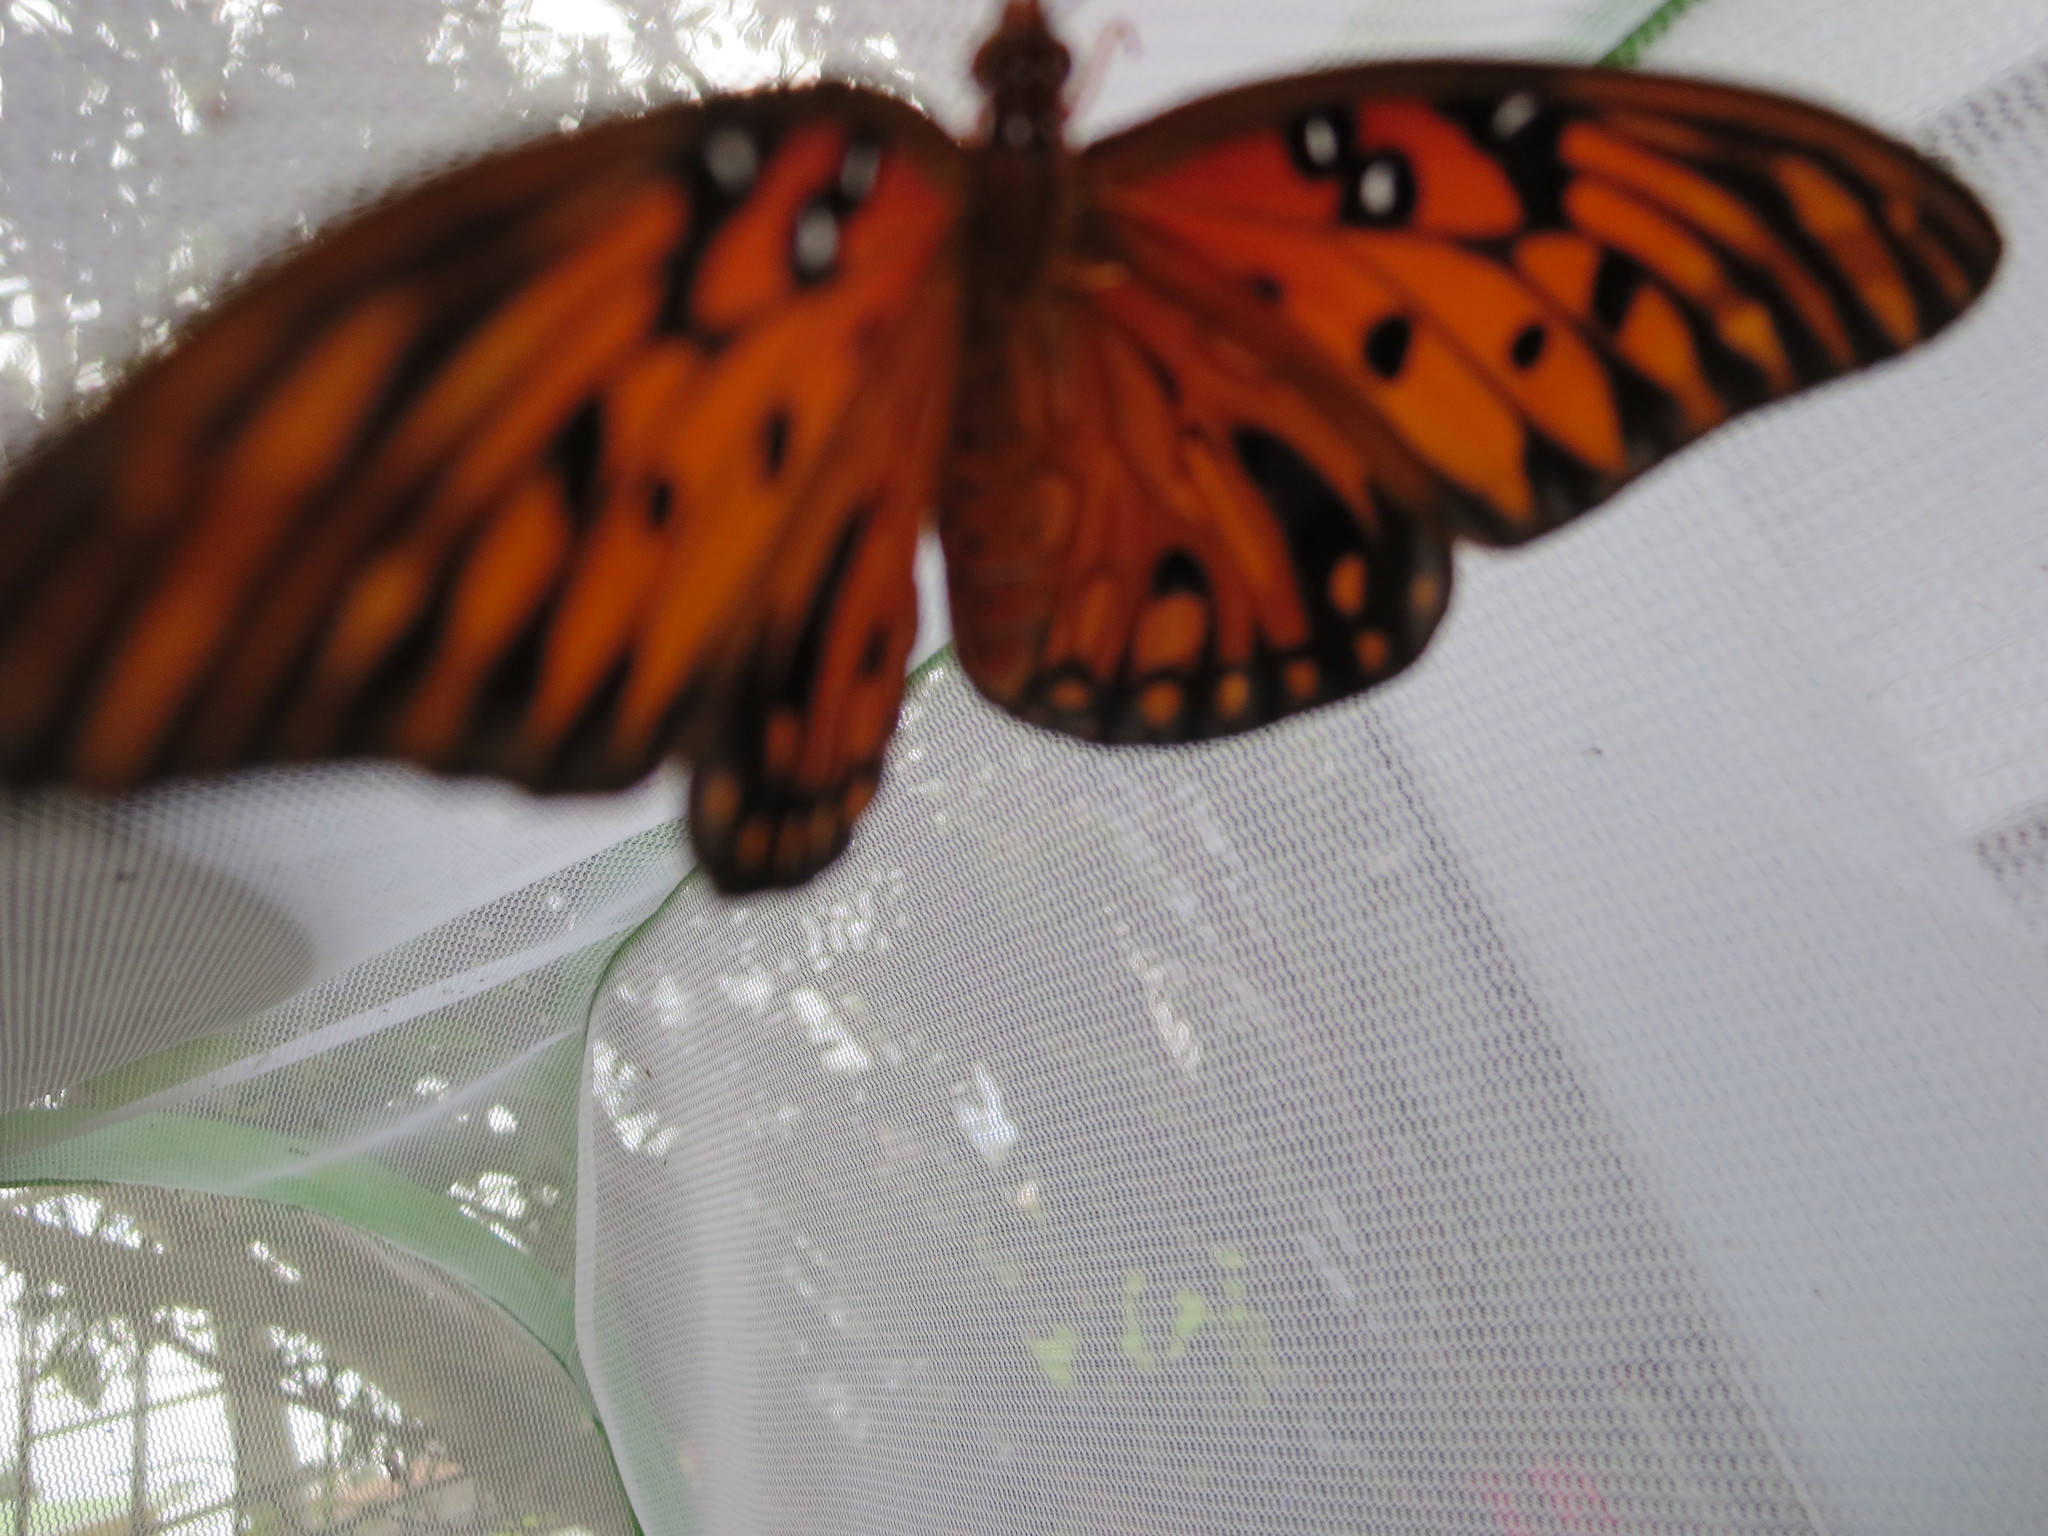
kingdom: Animalia
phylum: Arthropoda
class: Insecta
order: Lepidoptera
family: Nymphalidae
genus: Dione
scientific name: Dione vanillae
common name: Gulf fritillary
